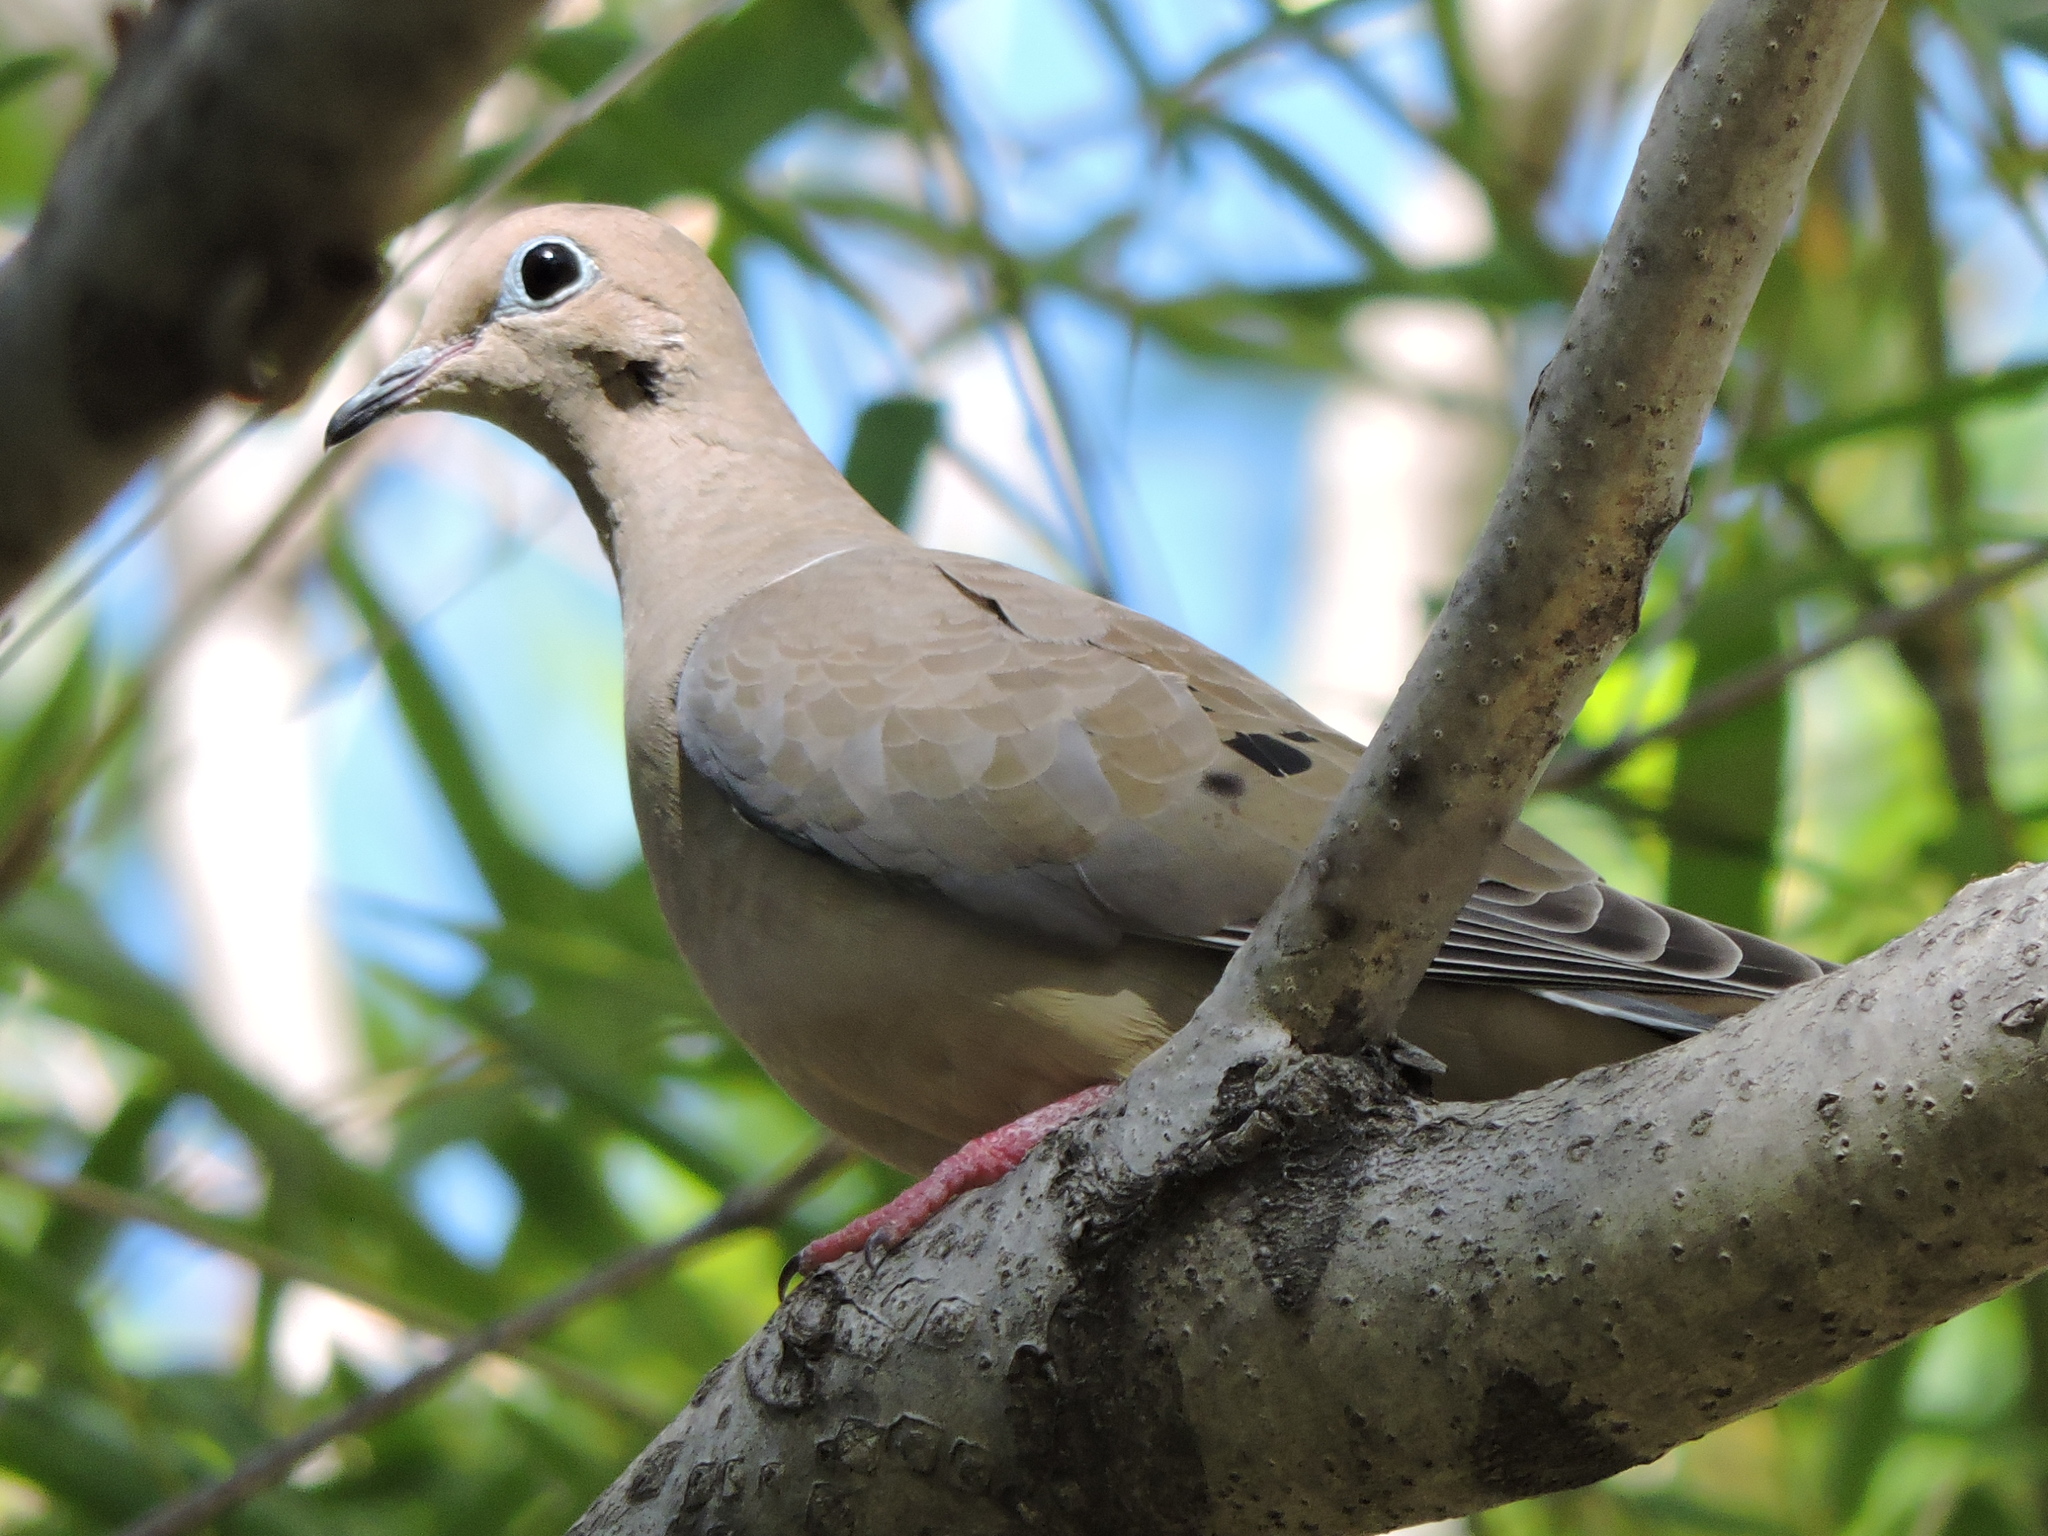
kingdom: Animalia
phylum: Chordata
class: Aves
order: Columbiformes
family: Columbidae
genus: Zenaida
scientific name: Zenaida macroura
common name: Mourning dove
